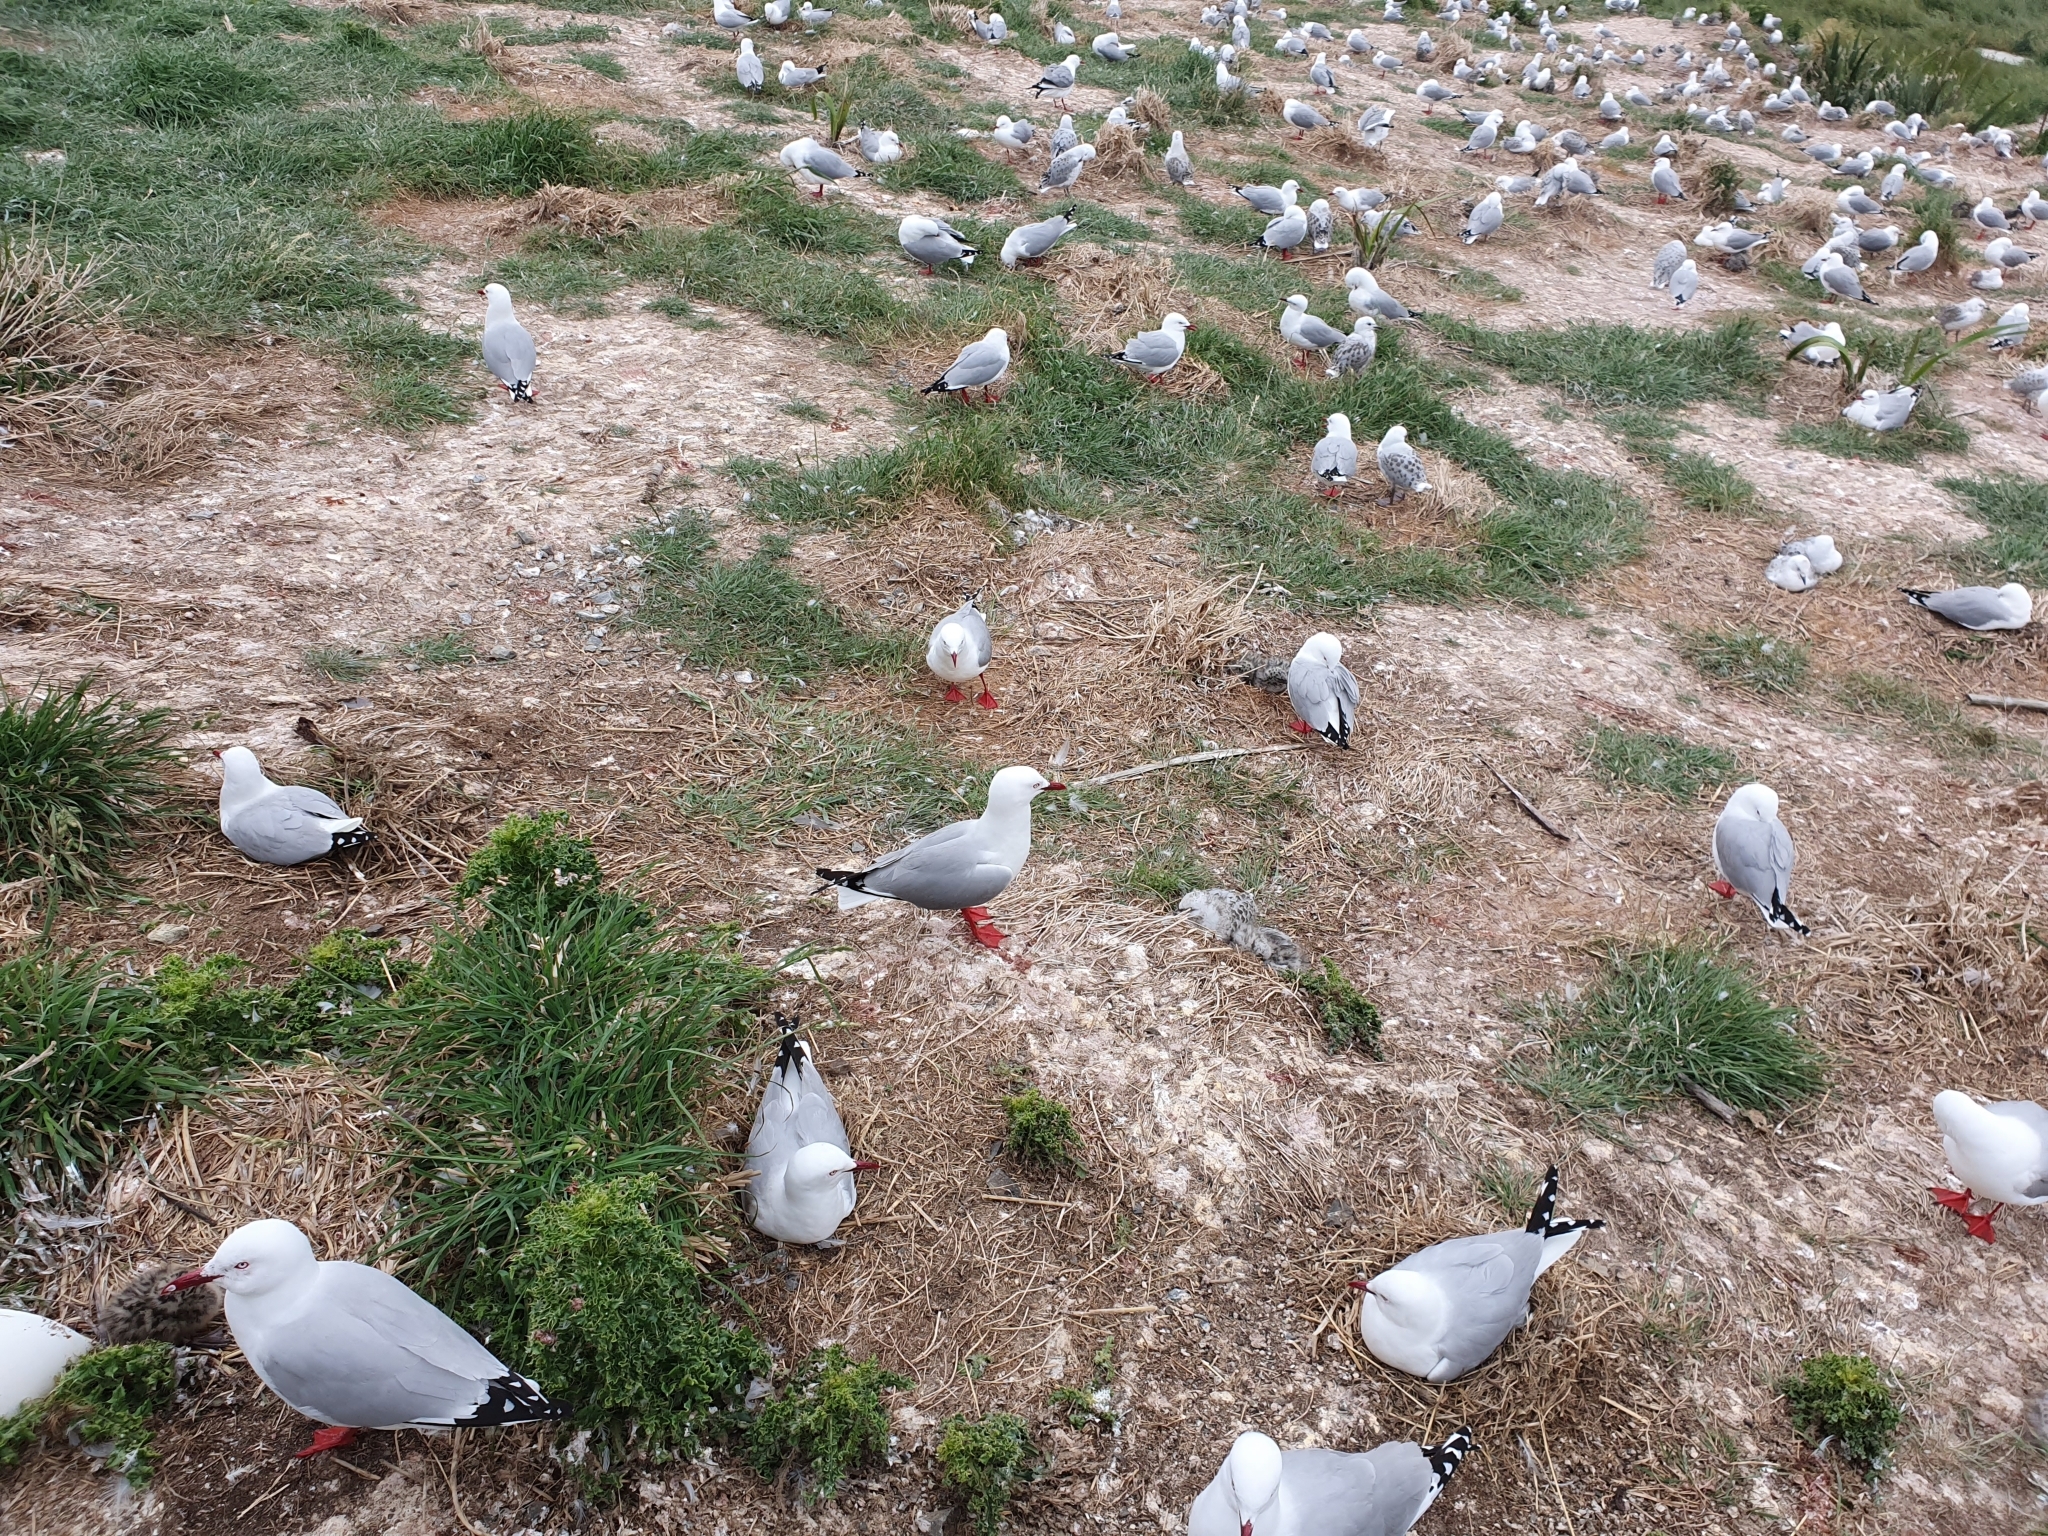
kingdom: Animalia
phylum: Chordata
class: Aves
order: Charadriiformes
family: Laridae
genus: Chroicocephalus
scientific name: Chroicocephalus novaehollandiae
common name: Silver gull
